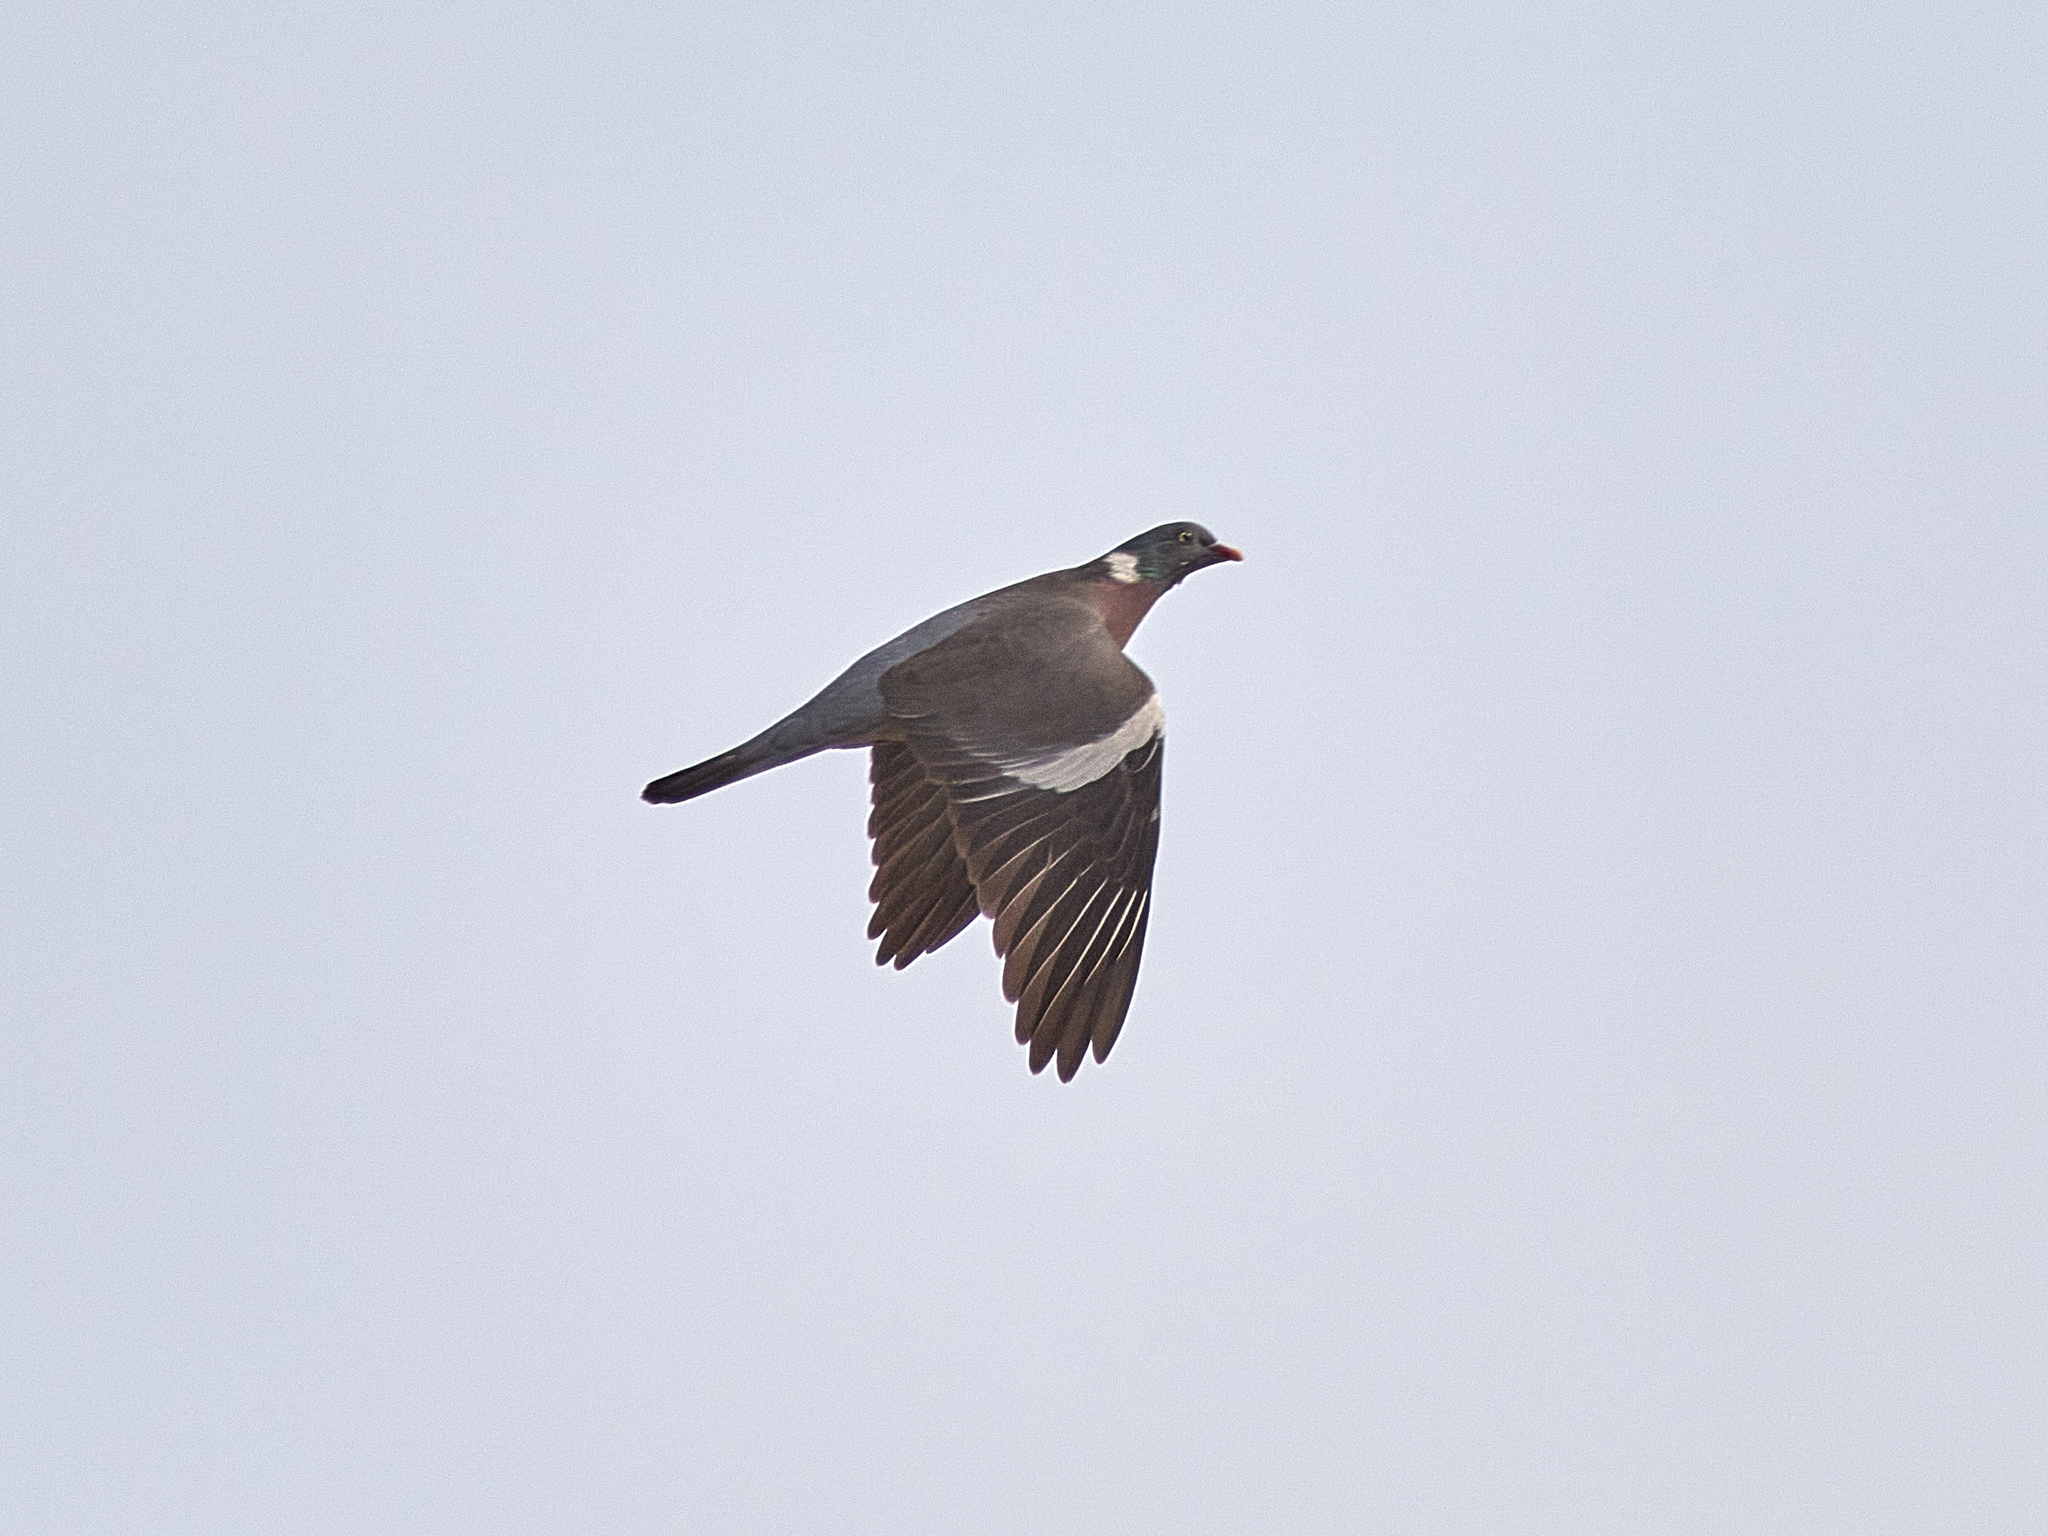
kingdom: Animalia
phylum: Chordata
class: Aves
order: Columbiformes
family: Columbidae
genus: Columba
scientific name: Columba palumbus
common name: Common wood pigeon
